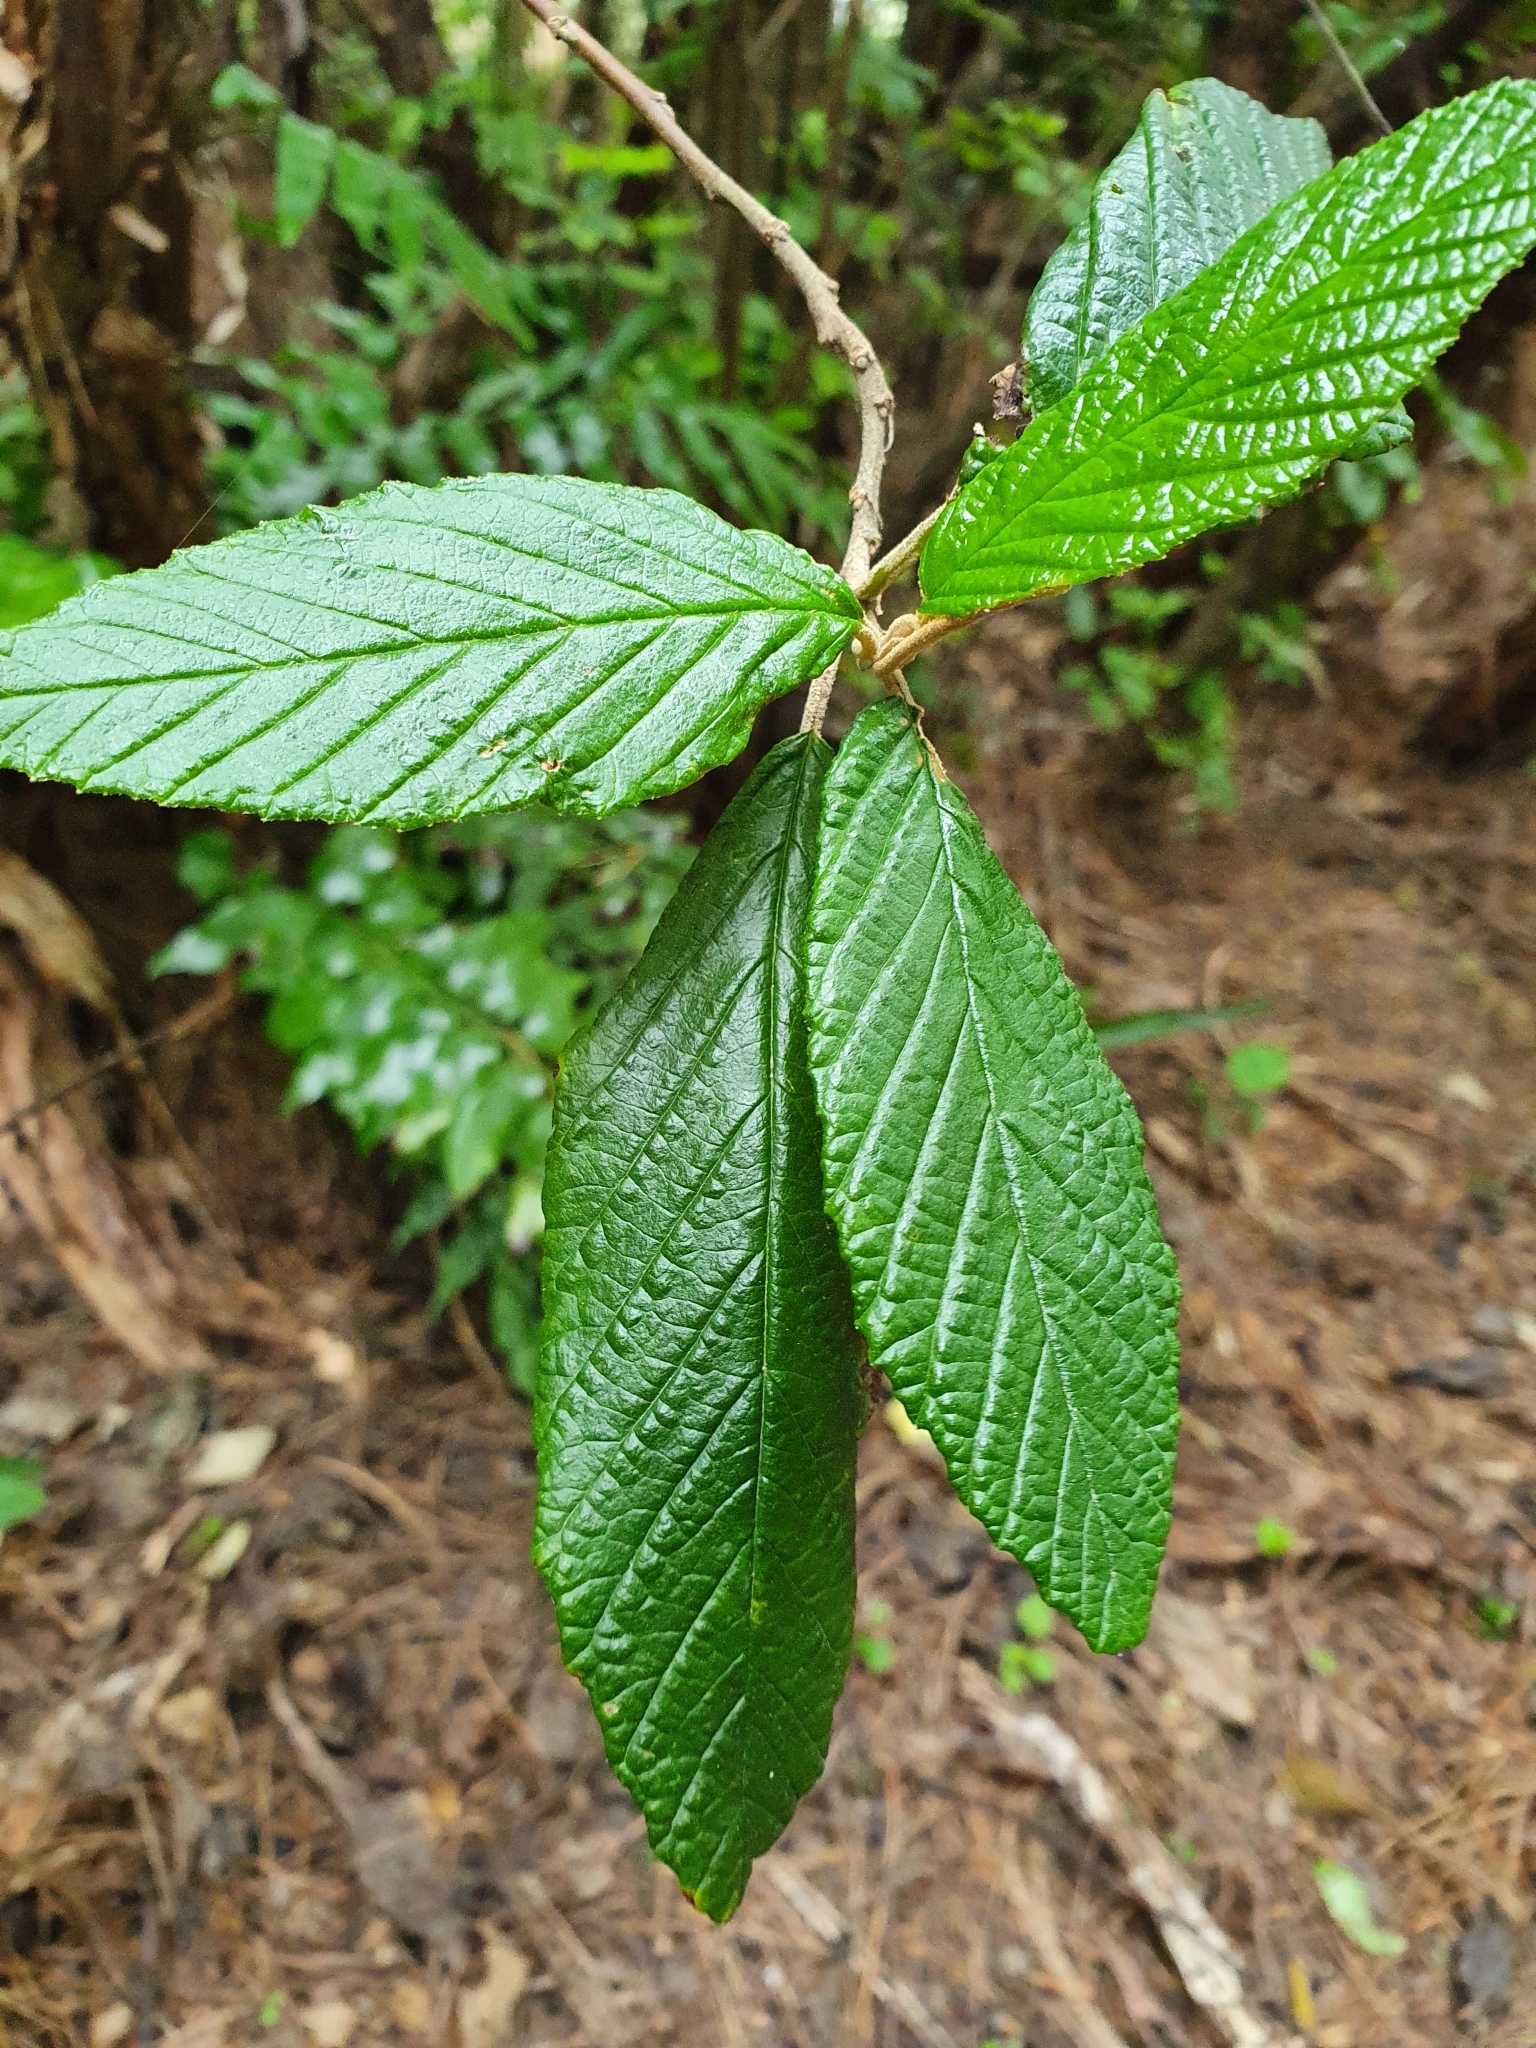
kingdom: Plantae
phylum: Tracheophyta
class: Magnoliopsida
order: Rosales
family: Rhamnaceae
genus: Pomaderris
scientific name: Pomaderris aspera
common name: Hazel pomaderris
